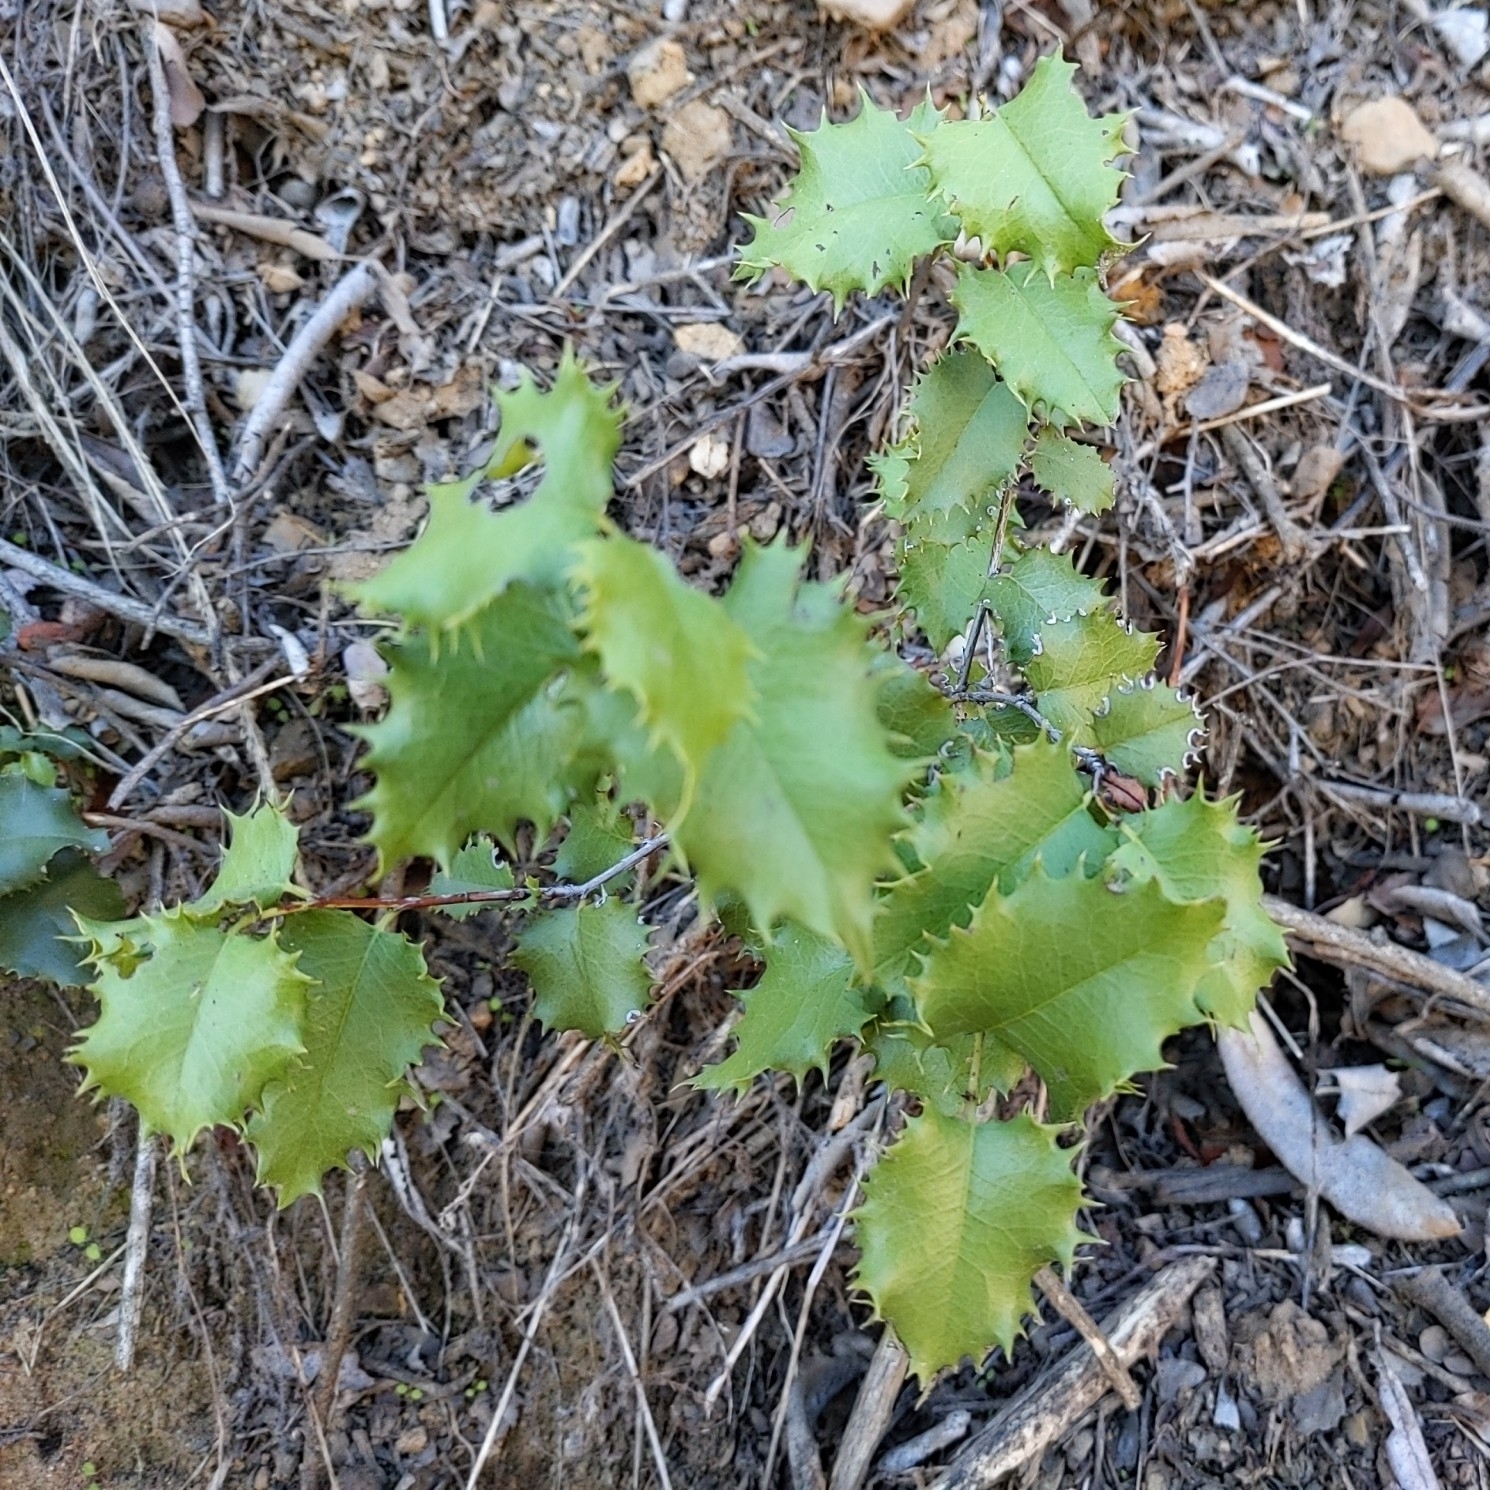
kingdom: Plantae
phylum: Tracheophyta
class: Magnoliopsida
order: Rosales
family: Rosaceae
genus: Prunus
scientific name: Prunus ilicifolia
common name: Hollyleaf cherry
